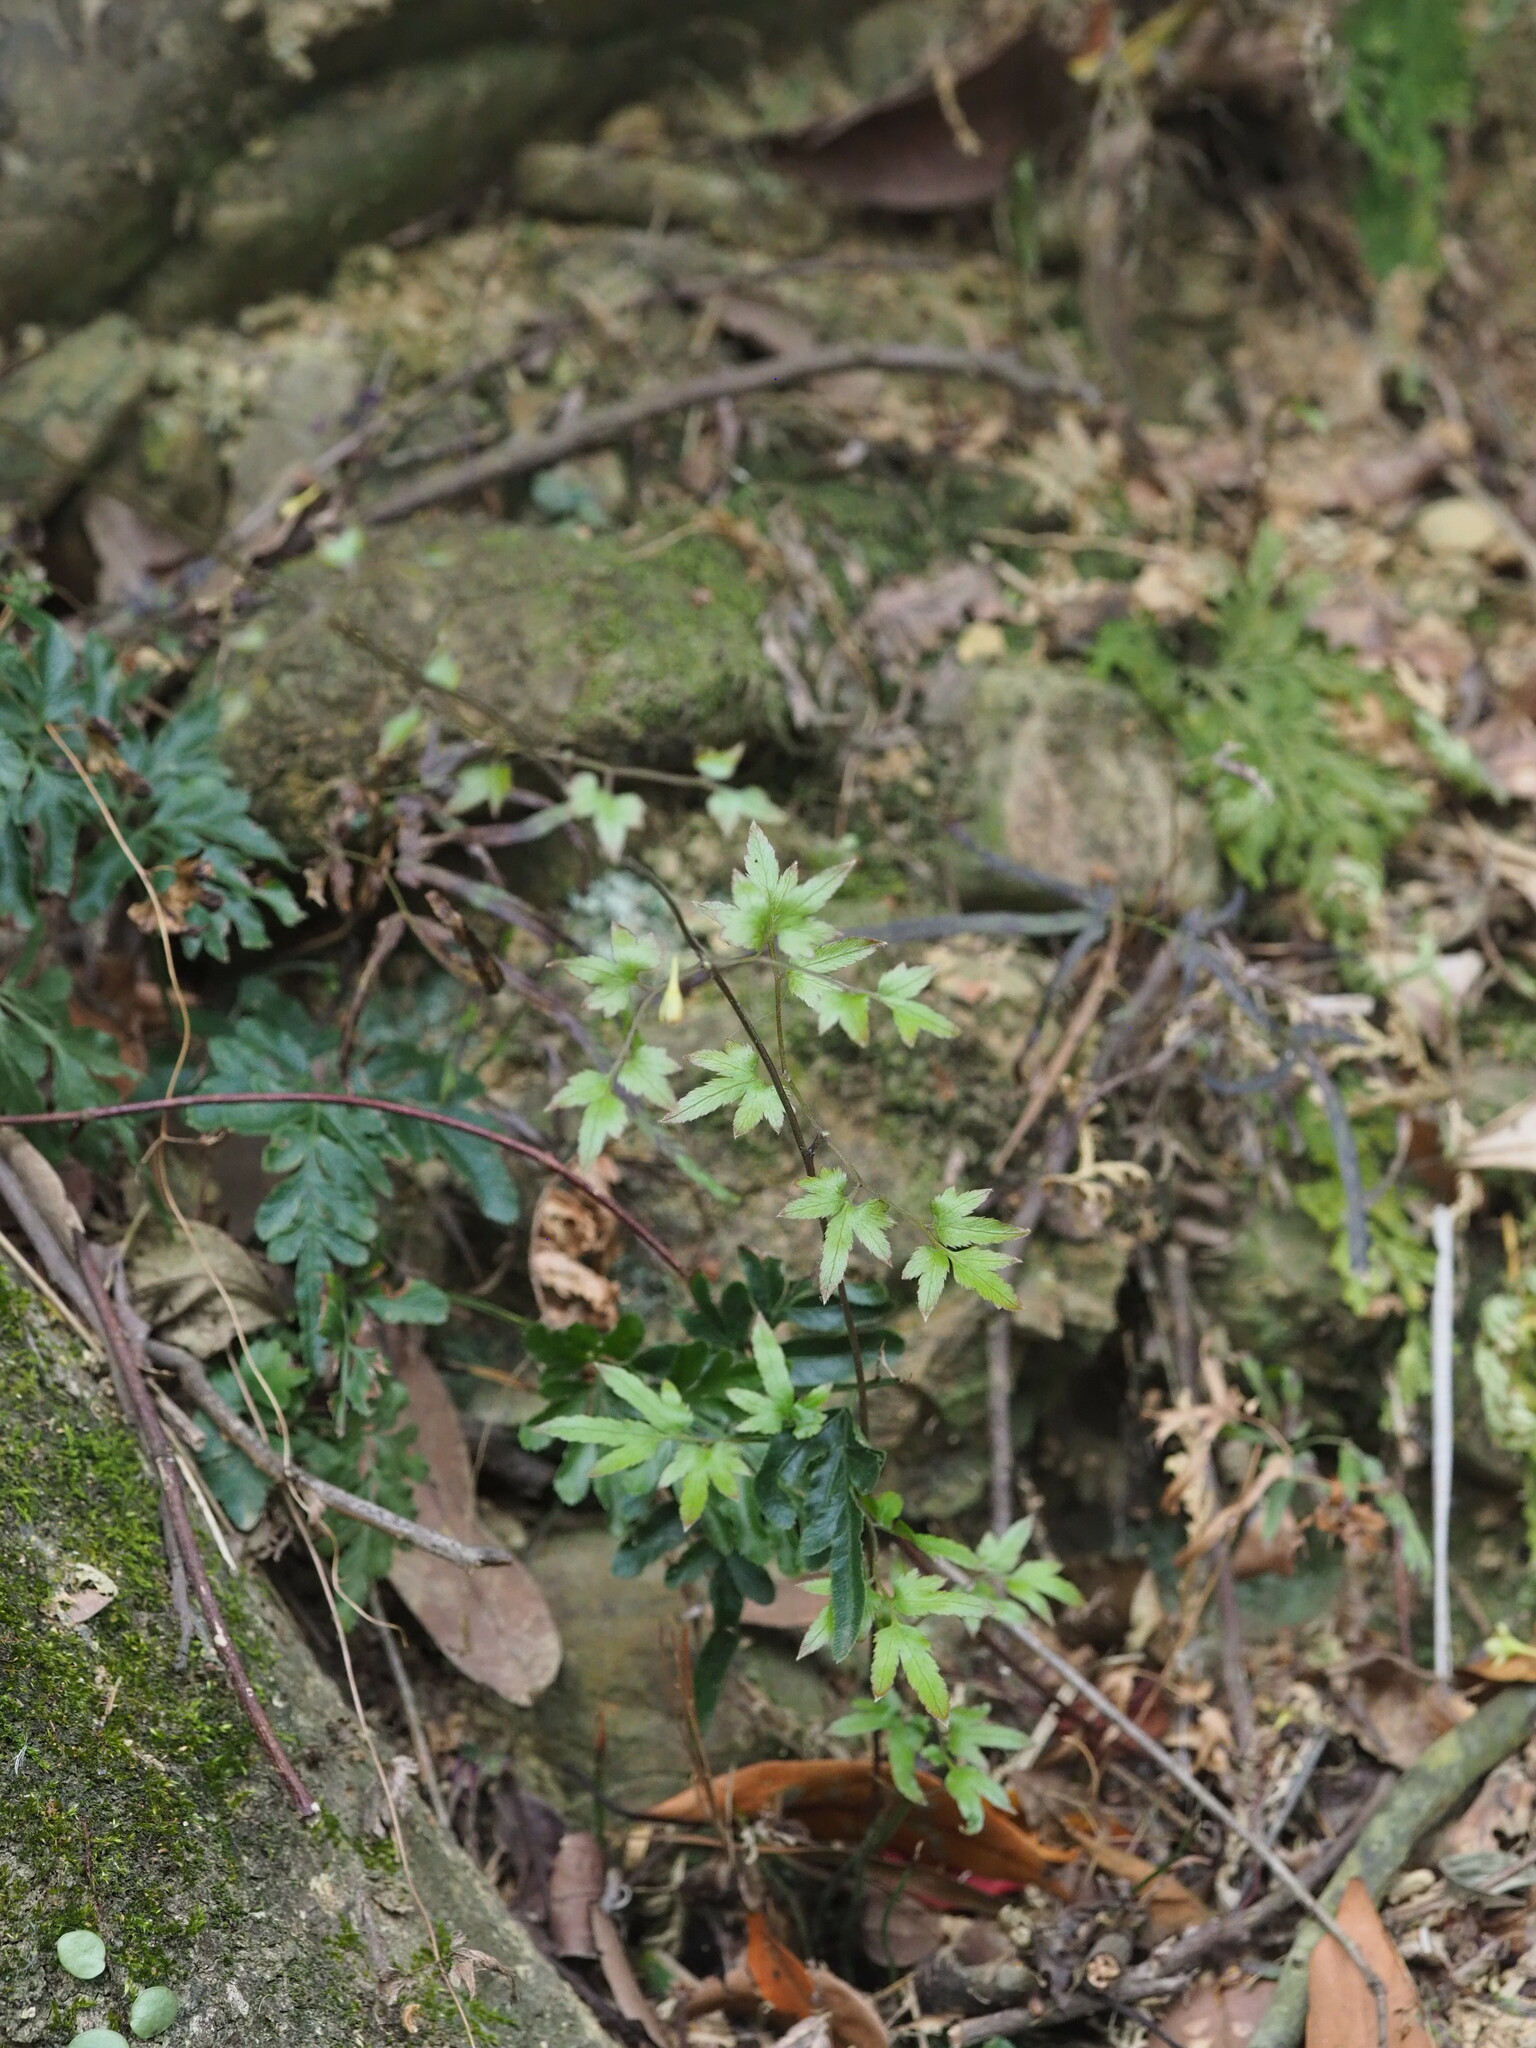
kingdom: Plantae
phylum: Tracheophyta
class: Polypodiopsida
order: Schizaeales
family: Lygodiaceae
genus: Lygodium
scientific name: Lygodium japonicum
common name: Japanese climbing fern
